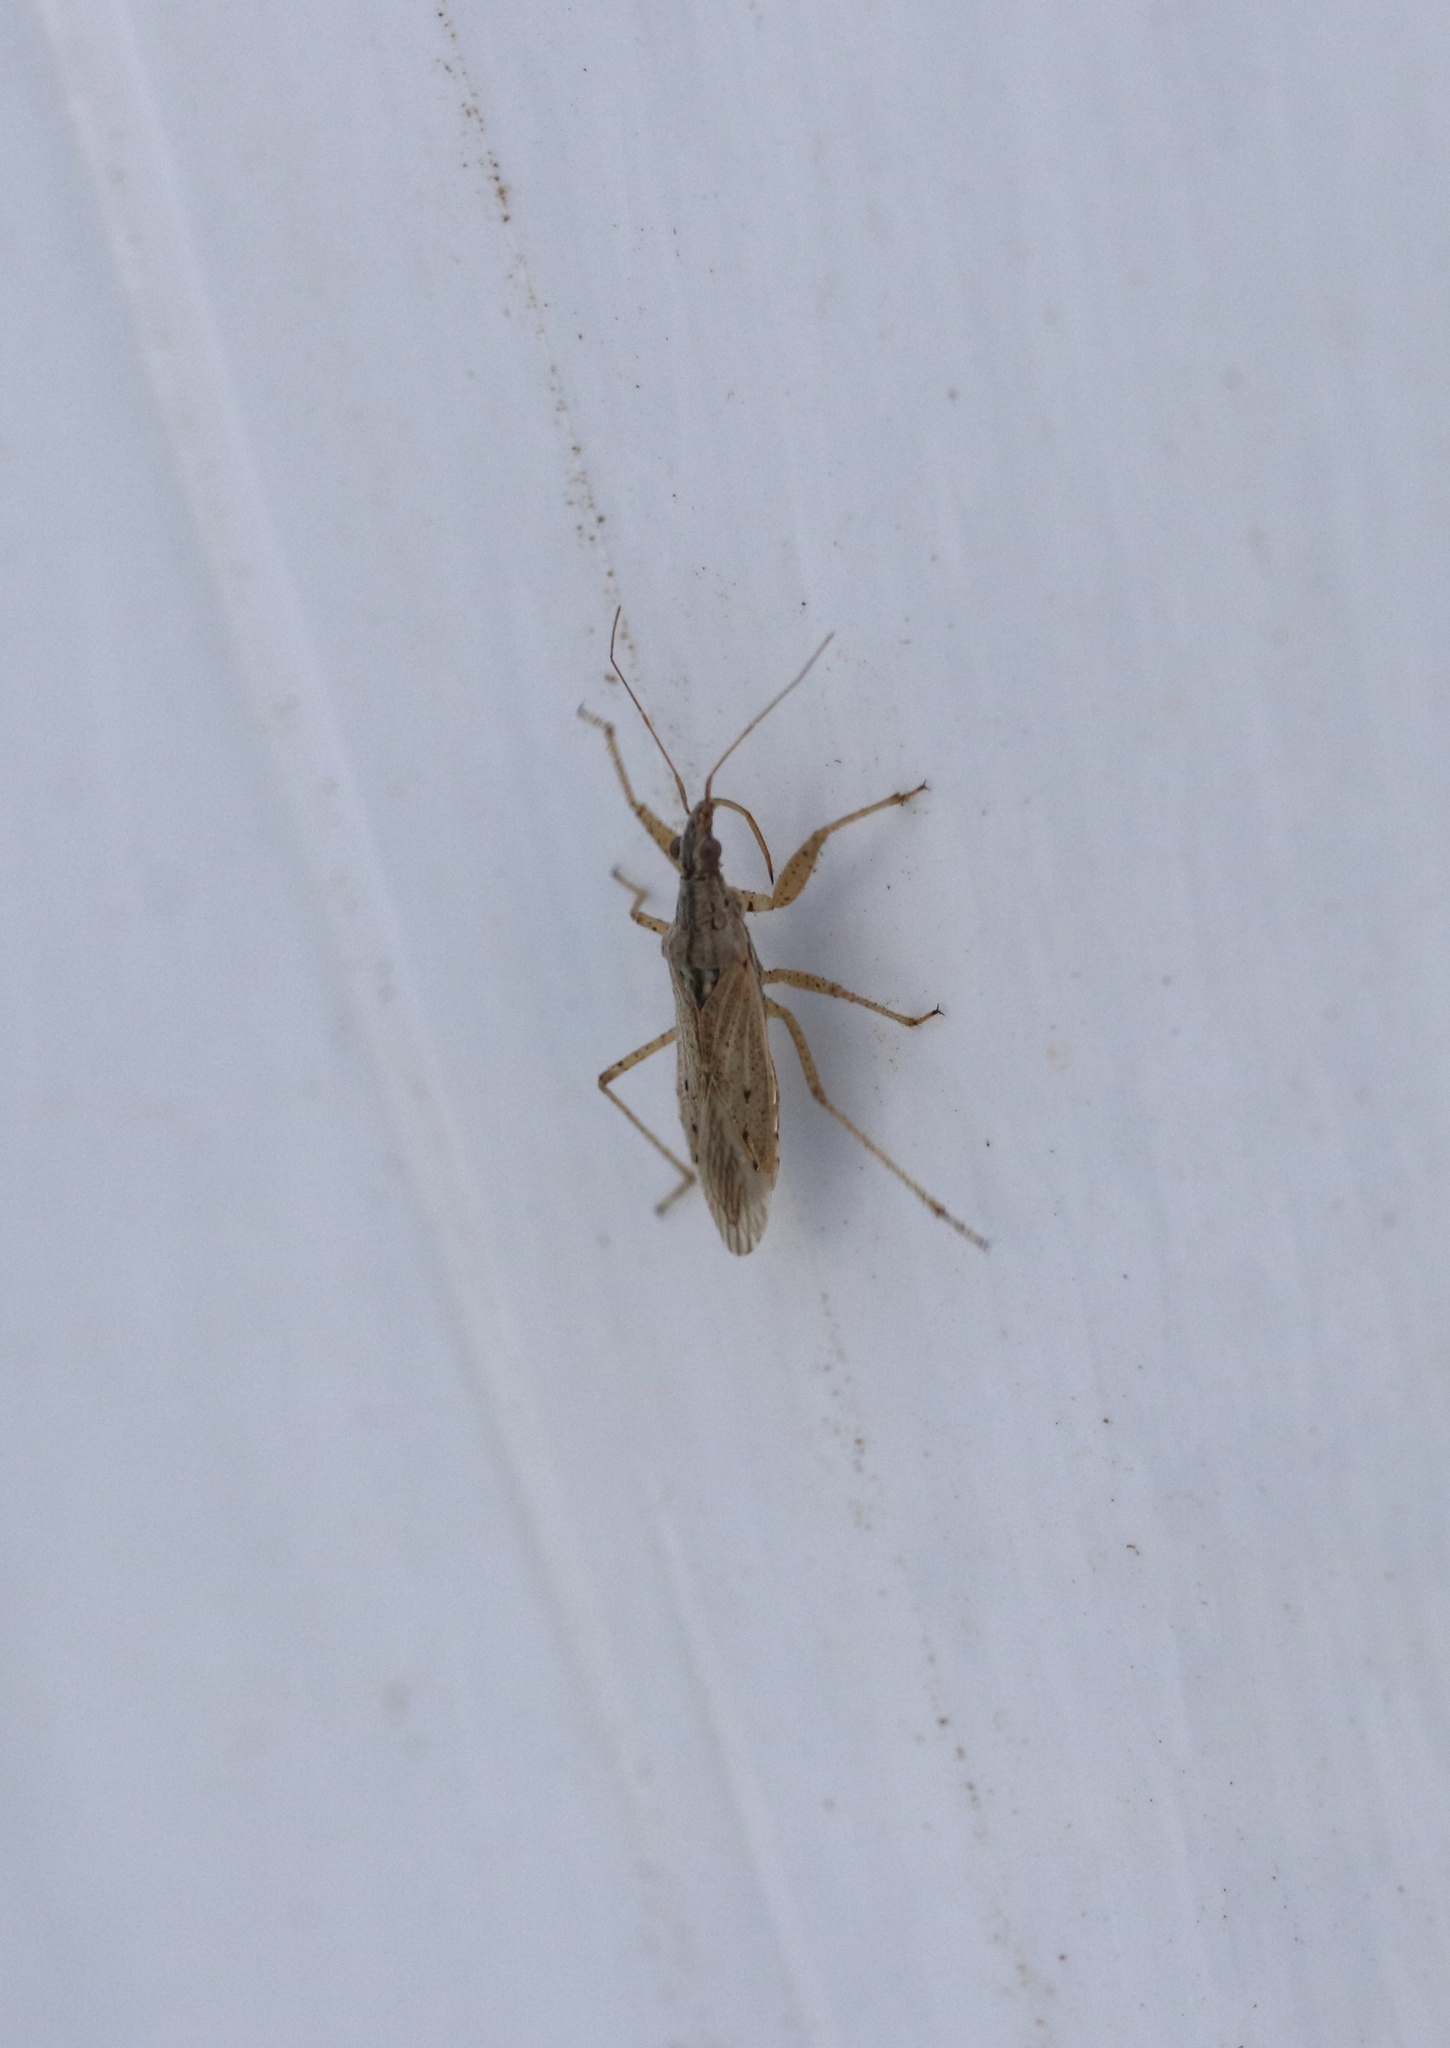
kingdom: Animalia
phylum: Arthropoda
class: Insecta
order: Hemiptera
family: Nabidae
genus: Nabis
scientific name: Nabis punctipennis
